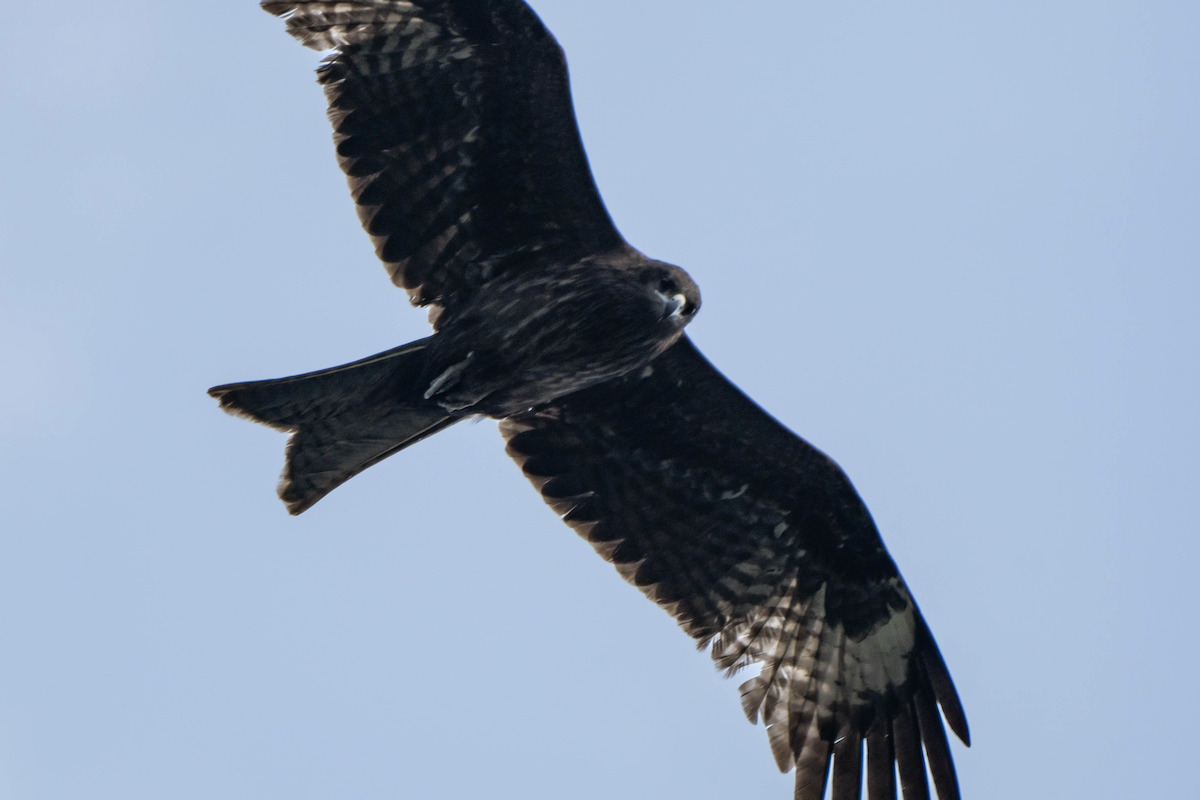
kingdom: Animalia
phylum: Chordata
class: Aves
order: Accipitriformes
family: Accipitridae
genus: Milvus
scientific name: Milvus migrans
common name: Black kite
